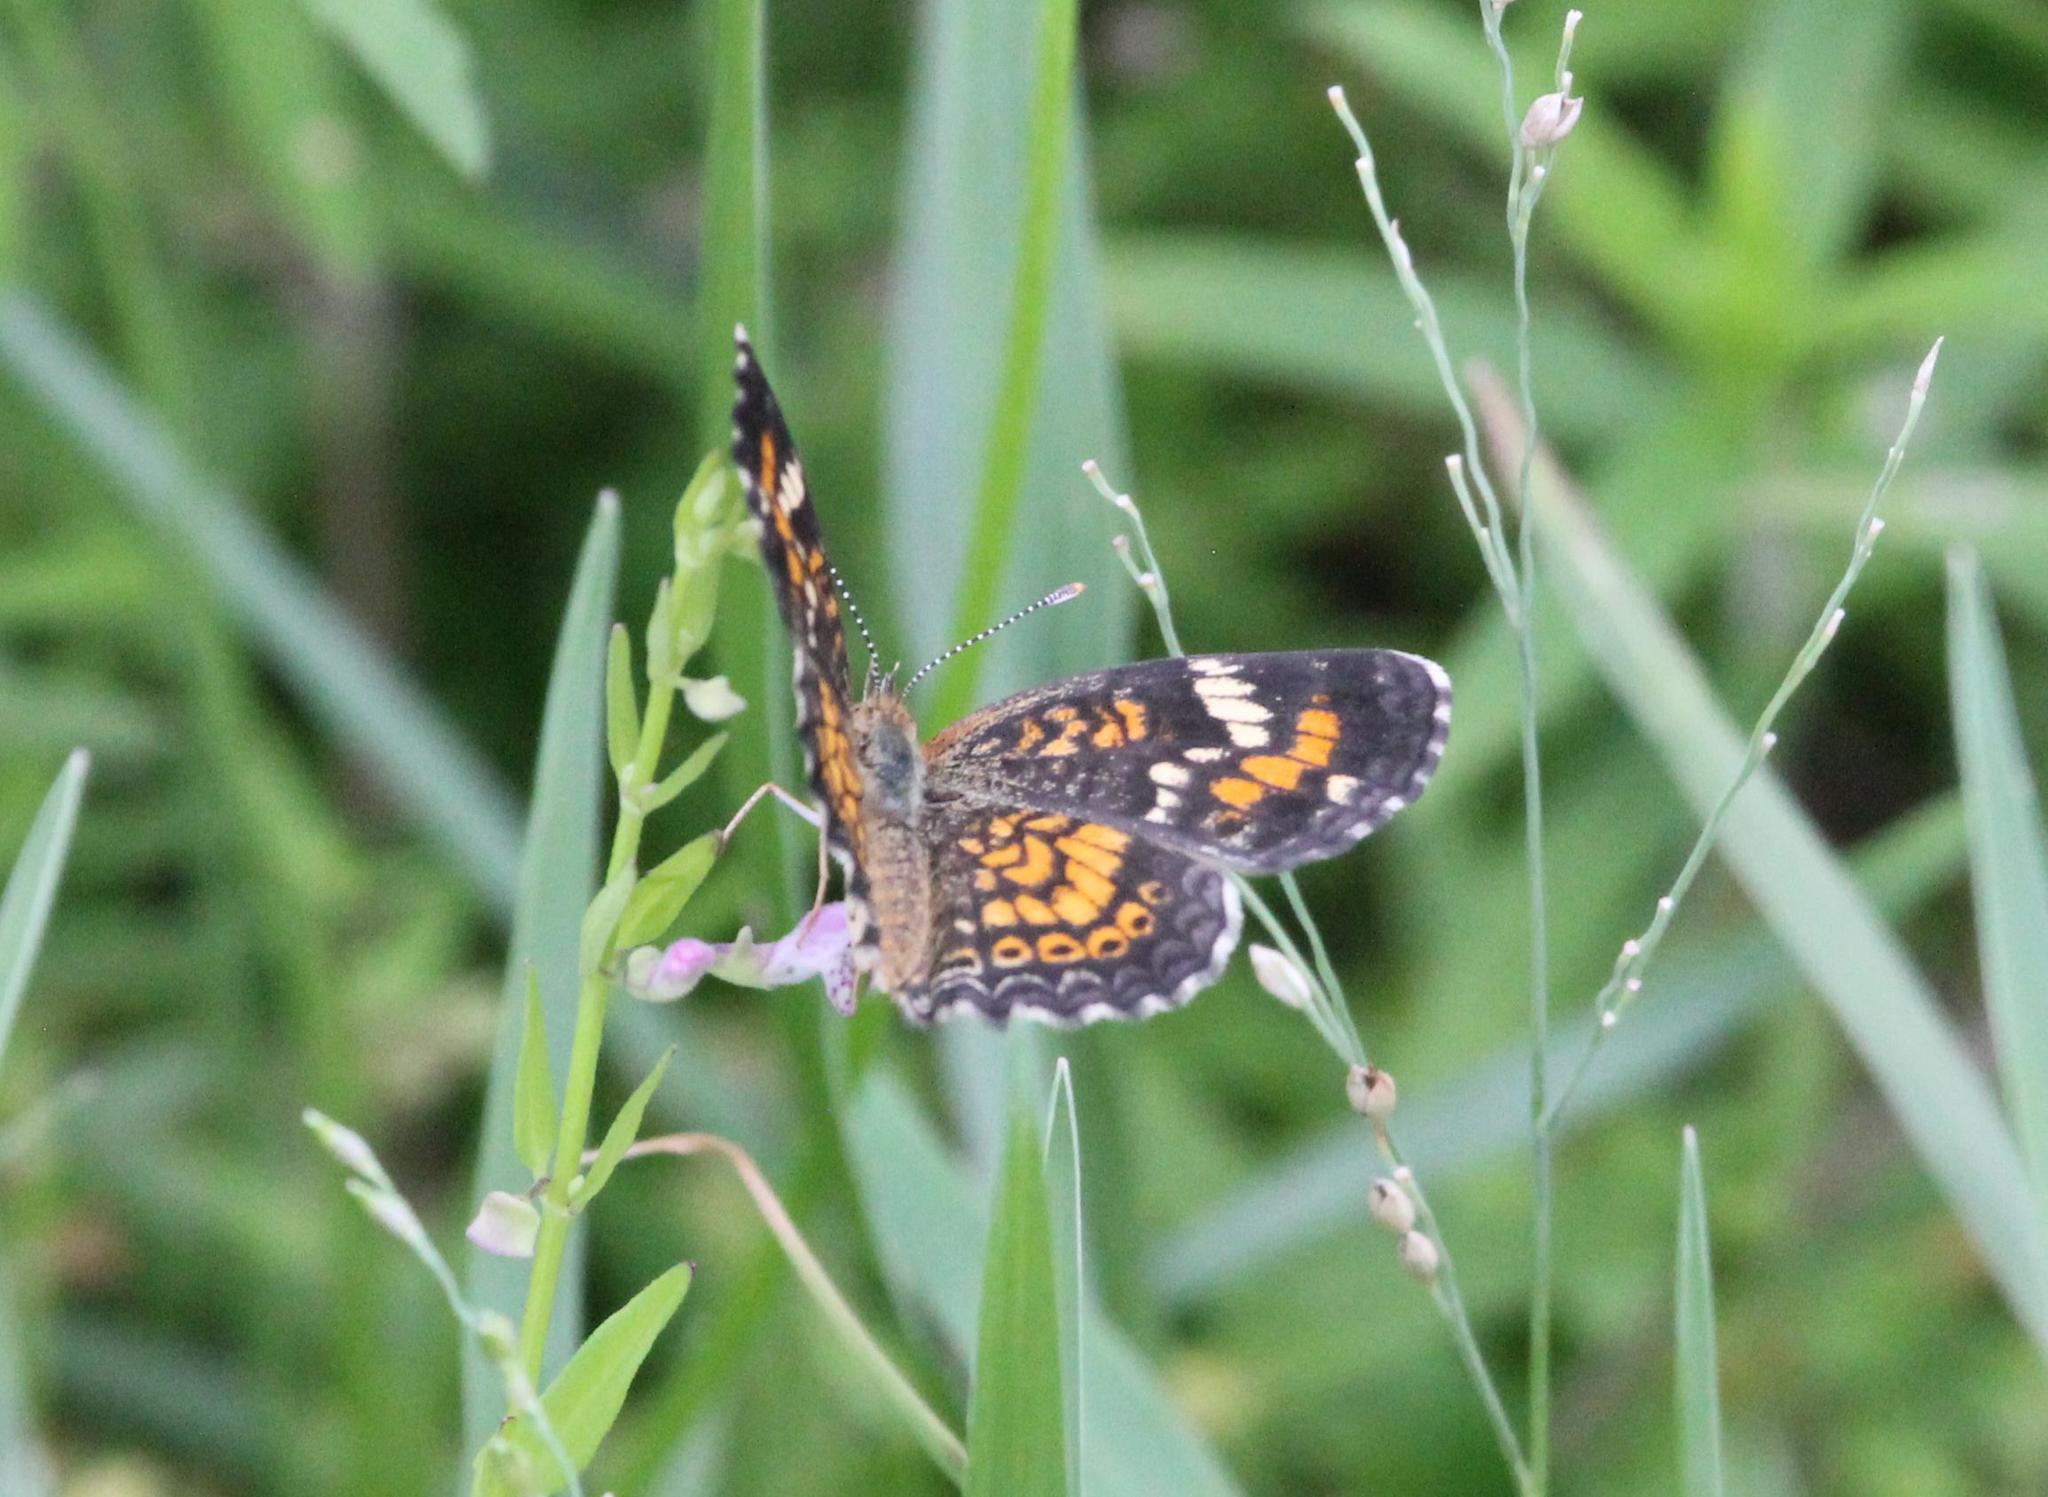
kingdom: Animalia
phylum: Arthropoda
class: Insecta
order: Lepidoptera
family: Nymphalidae
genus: Phyciodes
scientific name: Phyciodes phaon
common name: Phaon crescent
